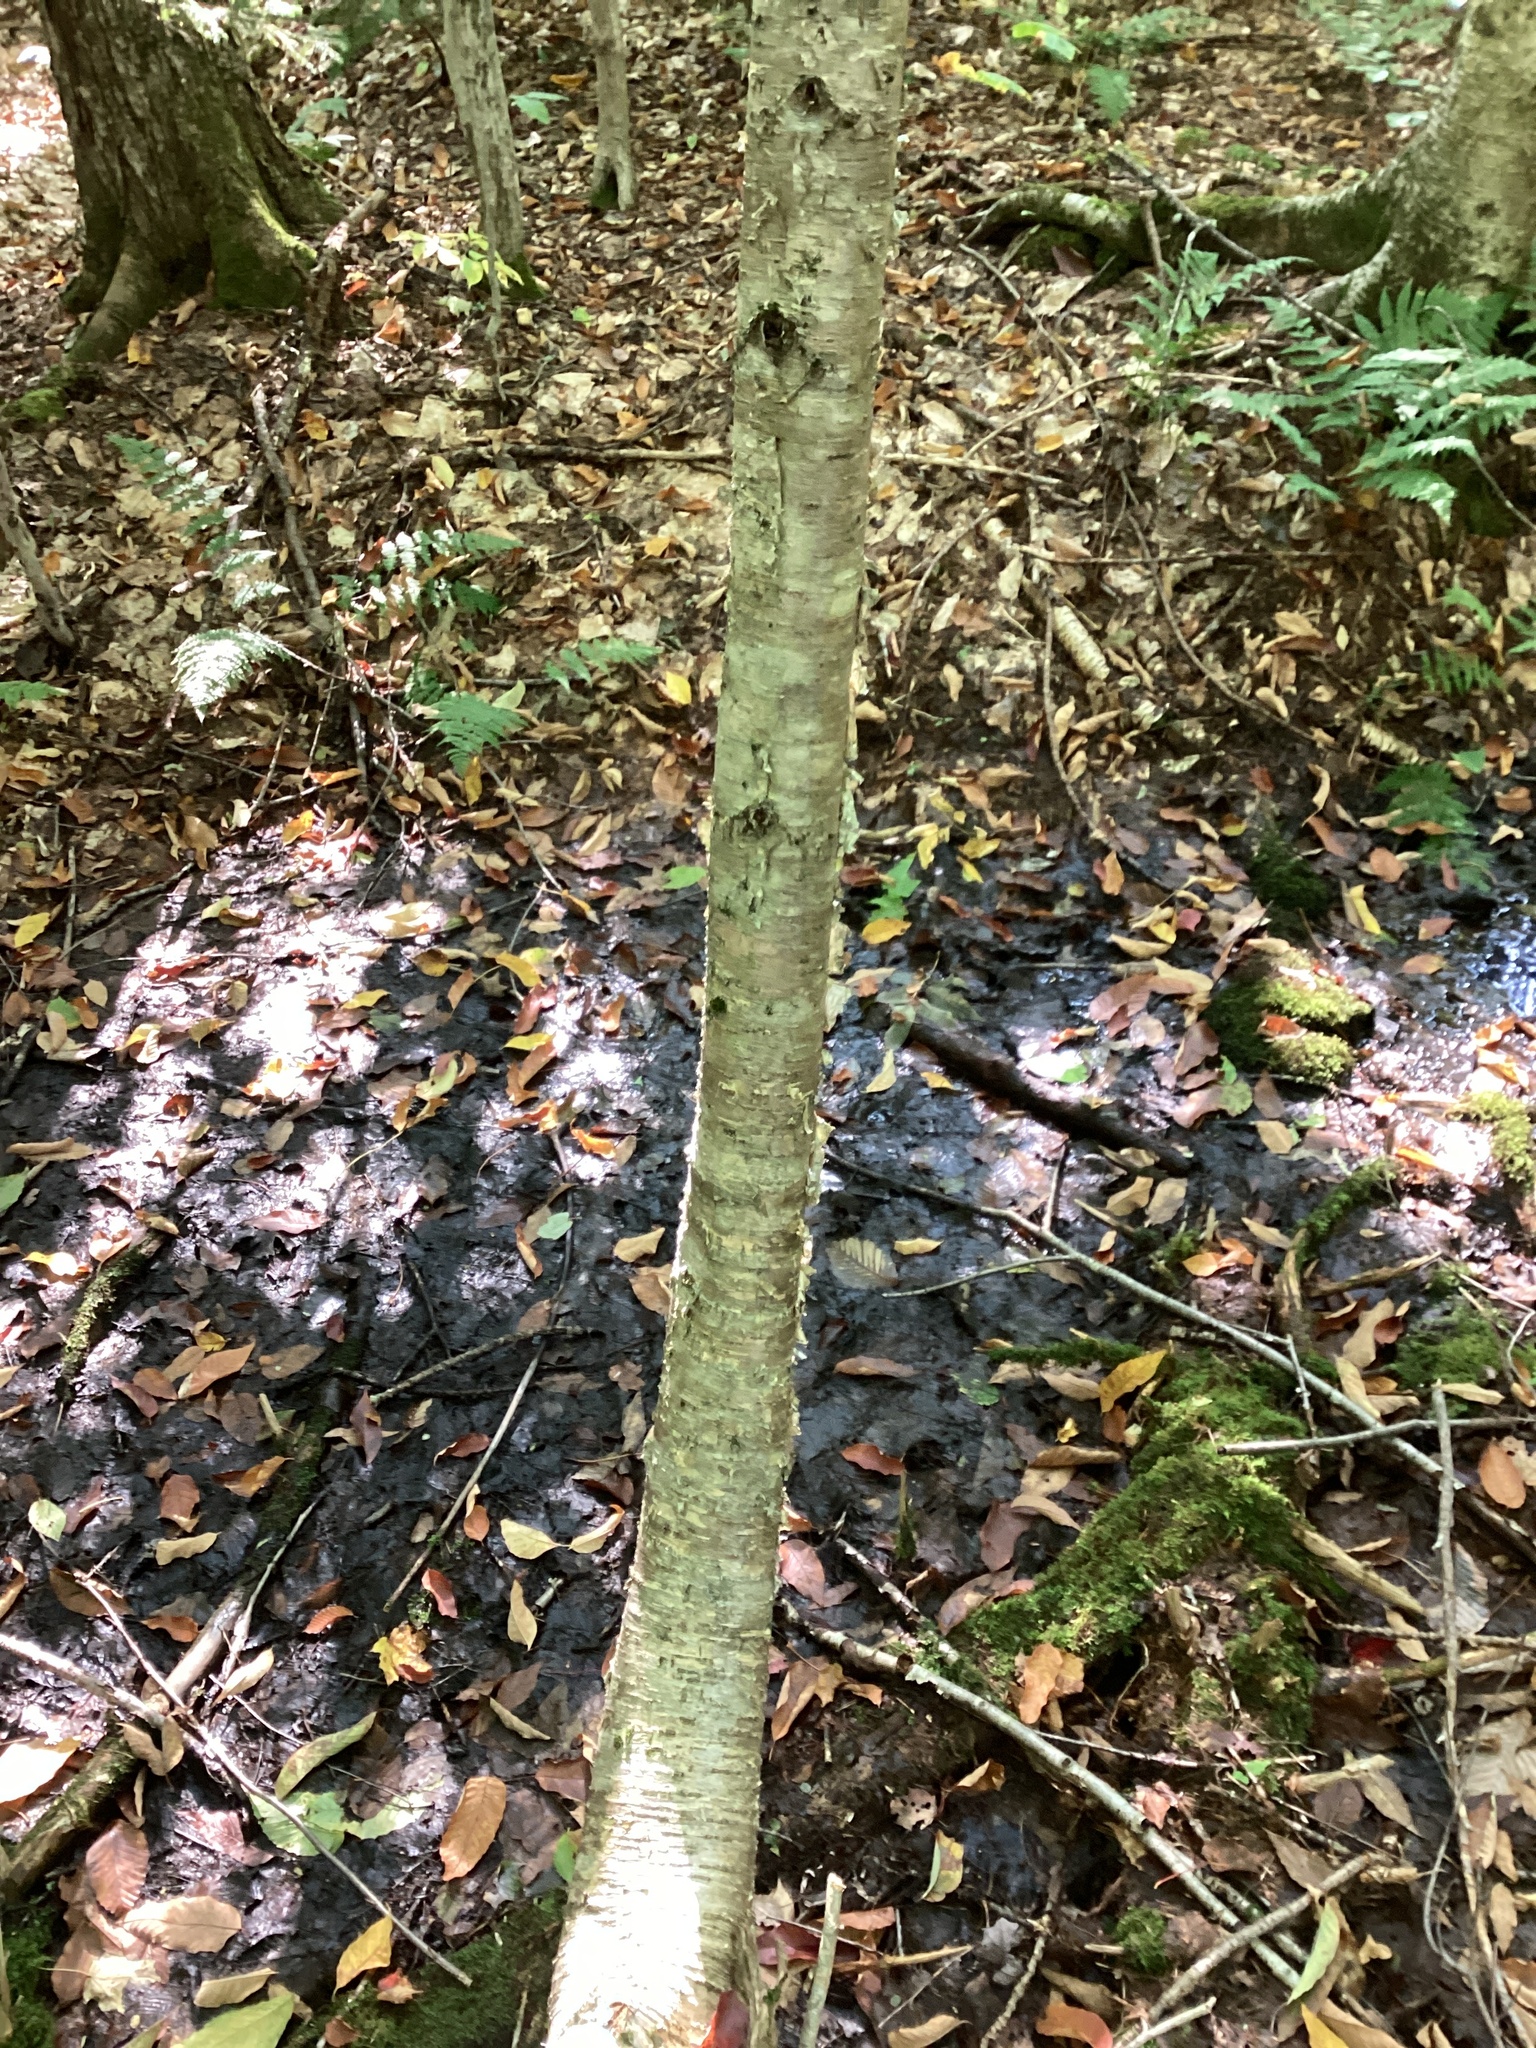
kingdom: Plantae
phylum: Tracheophyta
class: Magnoliopsida
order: Fagales
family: Betulaceae
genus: Betula
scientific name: Betula alleghaniensis
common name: Yellow birch
